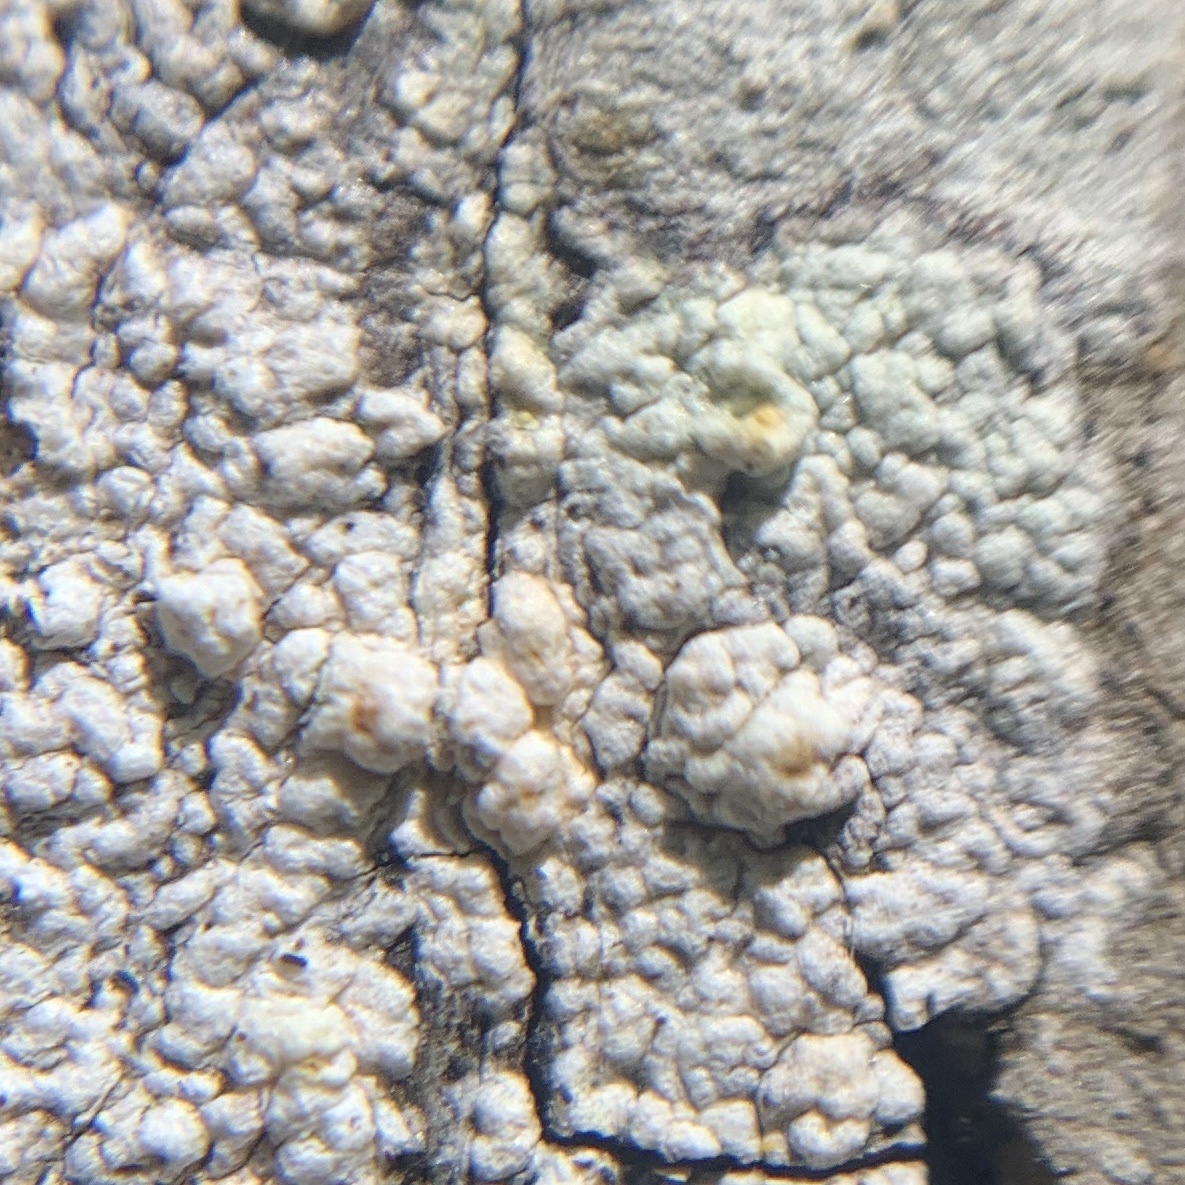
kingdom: Fungi
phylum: Ascomycota
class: Lecanoromycetes
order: Pertusariales
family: Pertusariaceae
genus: Pertusaria
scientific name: Pertusaria texana
